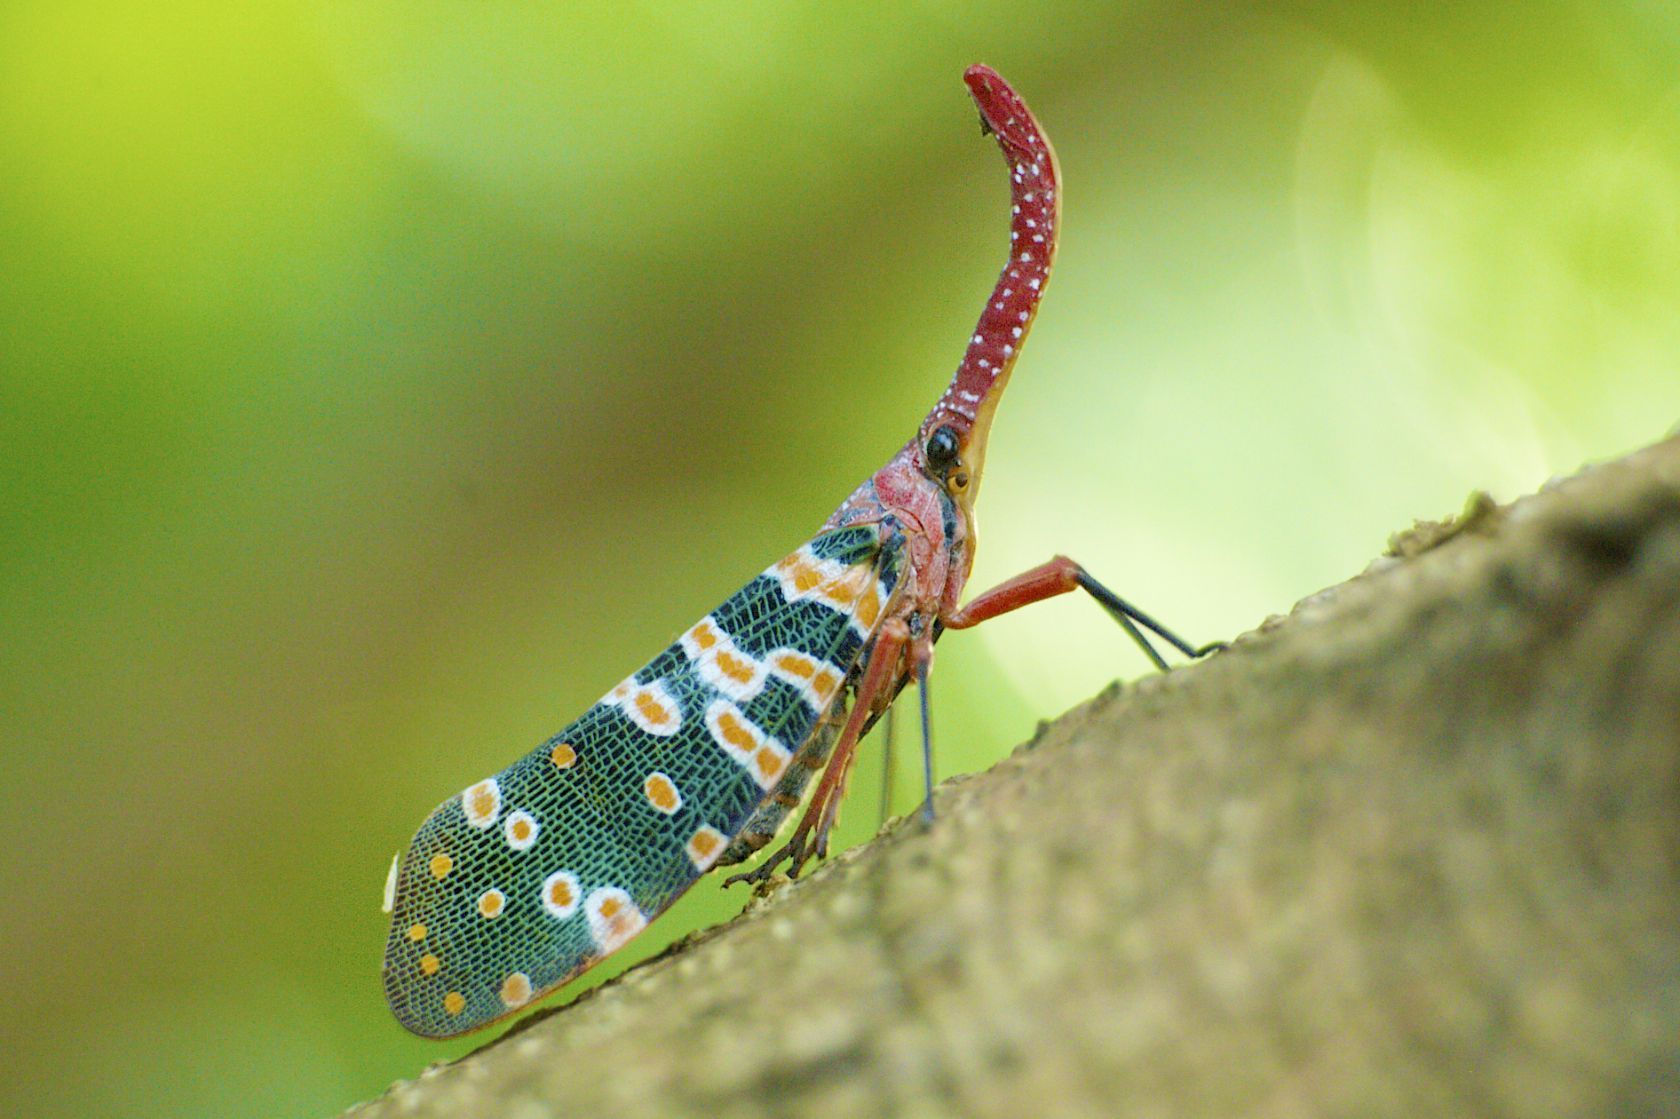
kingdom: Animalia
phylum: Arthropoda
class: Insecta
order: Hemiptera
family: Fulgoridae
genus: Pyrops
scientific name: Pyrops candelaria
